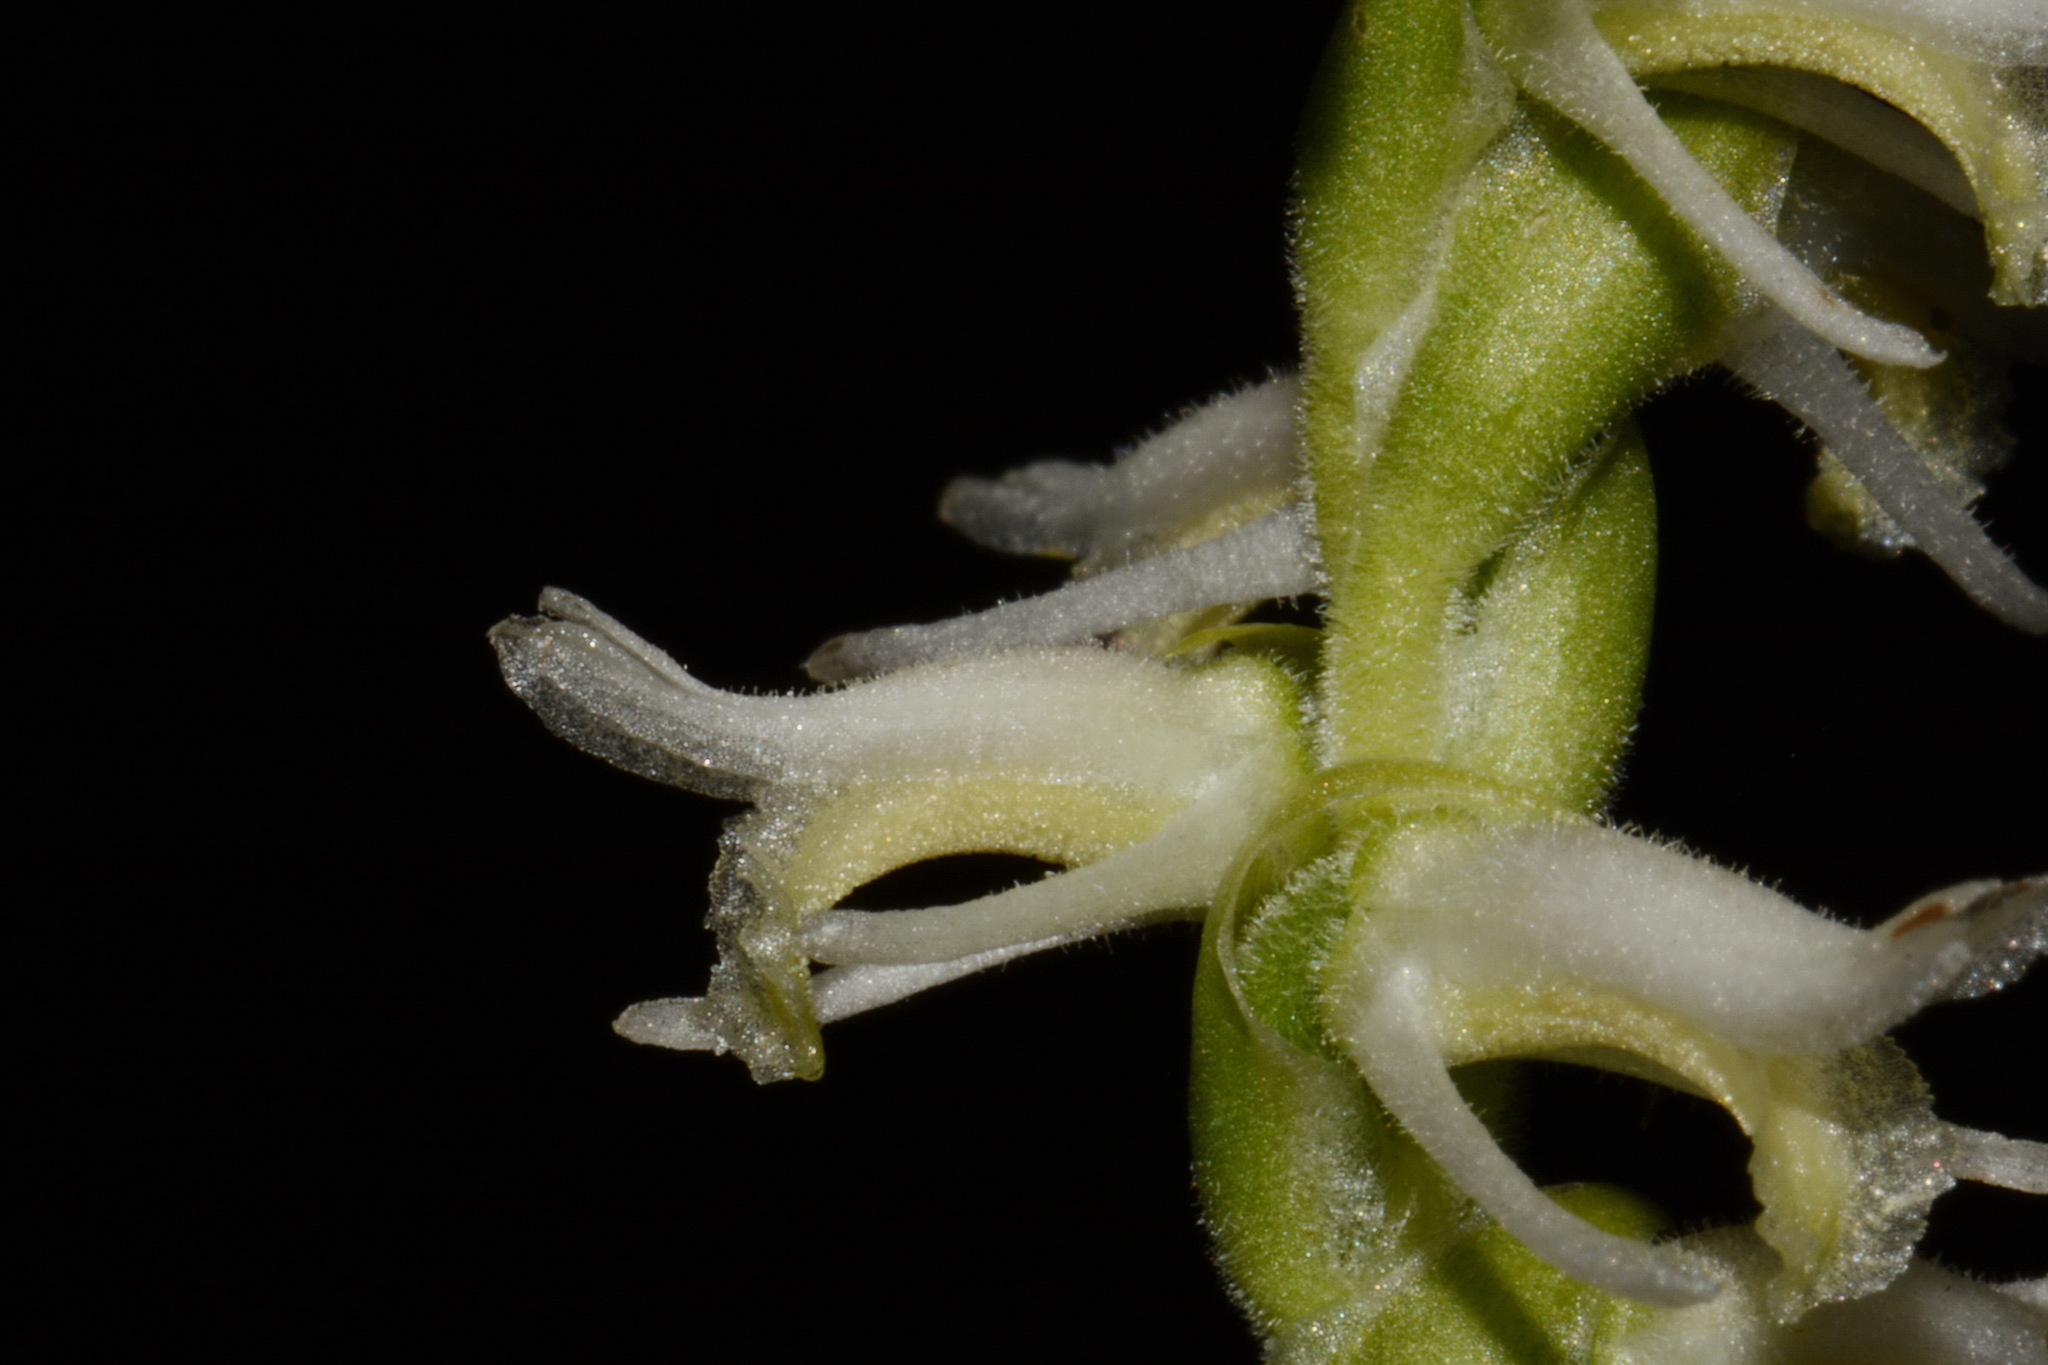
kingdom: Plantae
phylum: Tracheophyta
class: Liliopsida
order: Asparagales
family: Orchidaceae
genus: Spiranthes
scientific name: Spiranthes vernalis
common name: Spring ladies'-tresses
